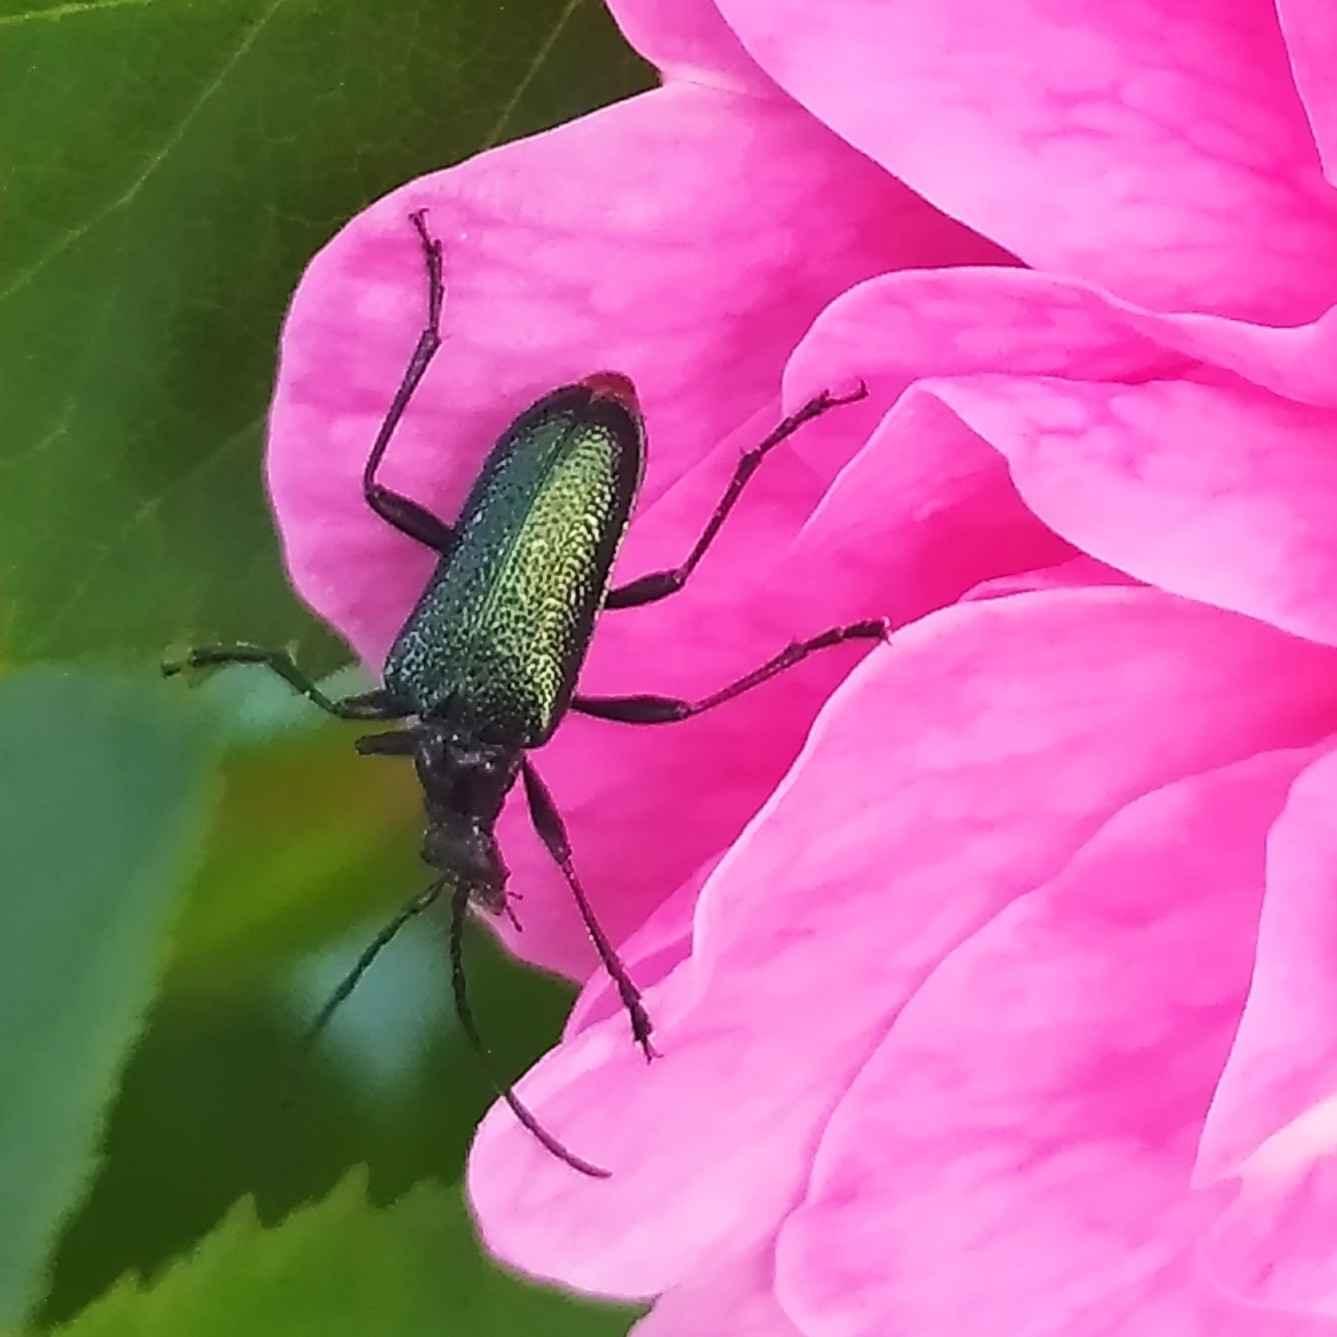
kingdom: Animalia
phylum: Arthropoda
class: Insecta
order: Coleoptera
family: Cerambycidae
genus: Gaurotes
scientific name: Gaurotes virginea
